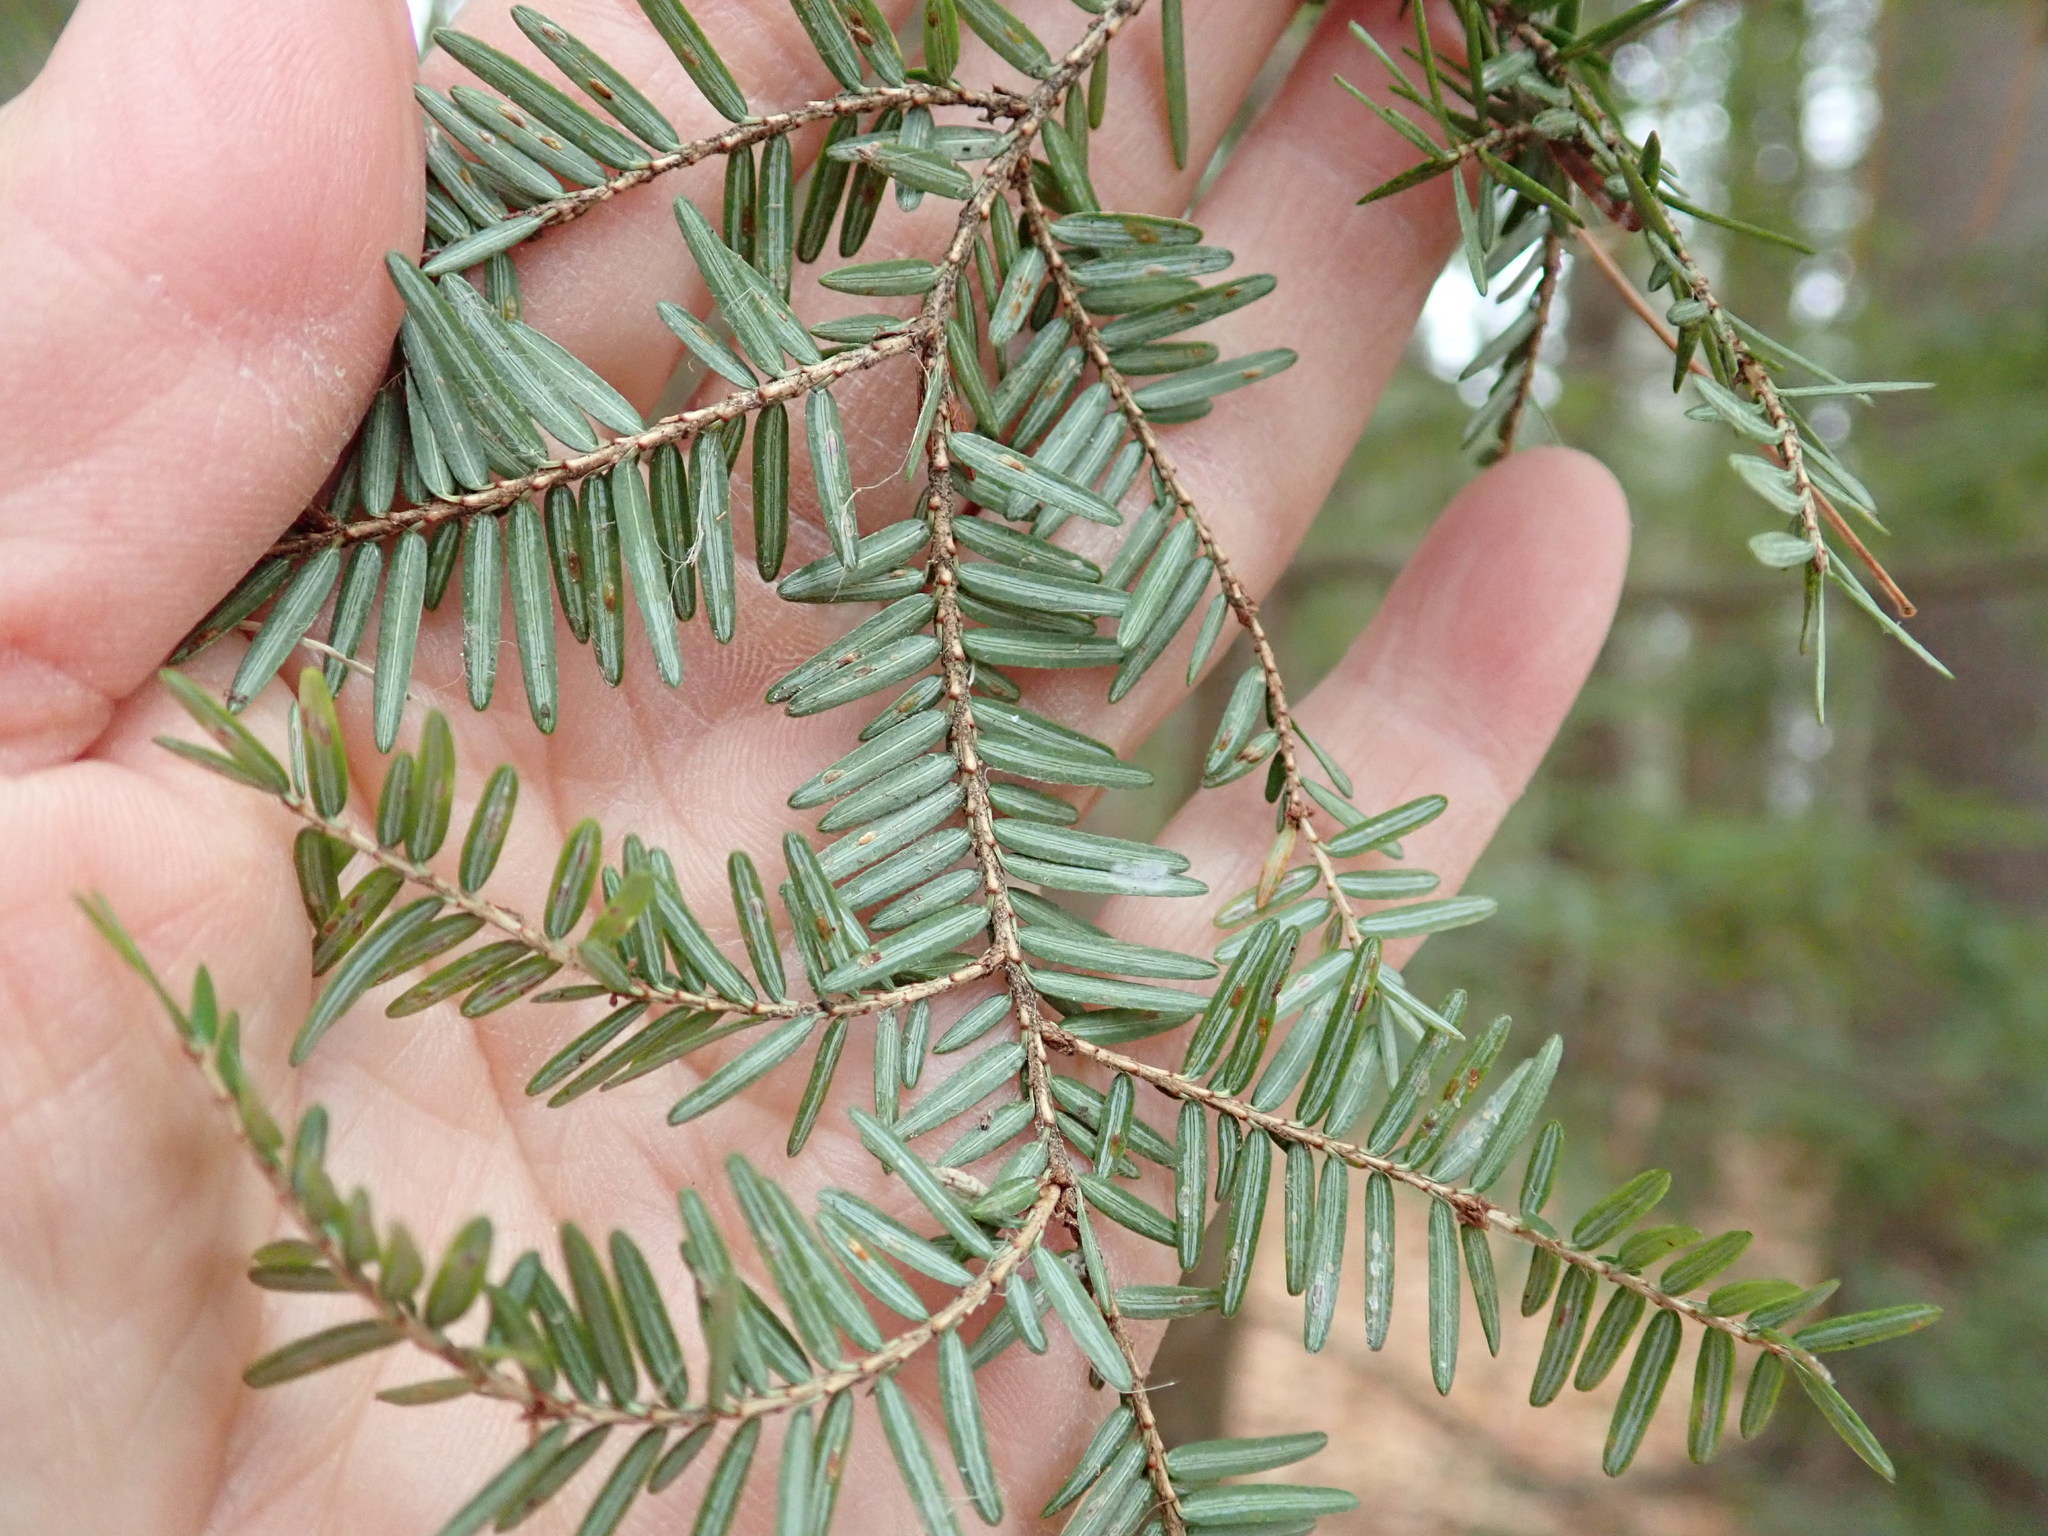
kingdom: Plantae
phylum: Tracheophyta
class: Pinopsida
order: Pinales
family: Pinaceae
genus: Tsuga
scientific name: Tsuga canadensis
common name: Eastern hemlock
